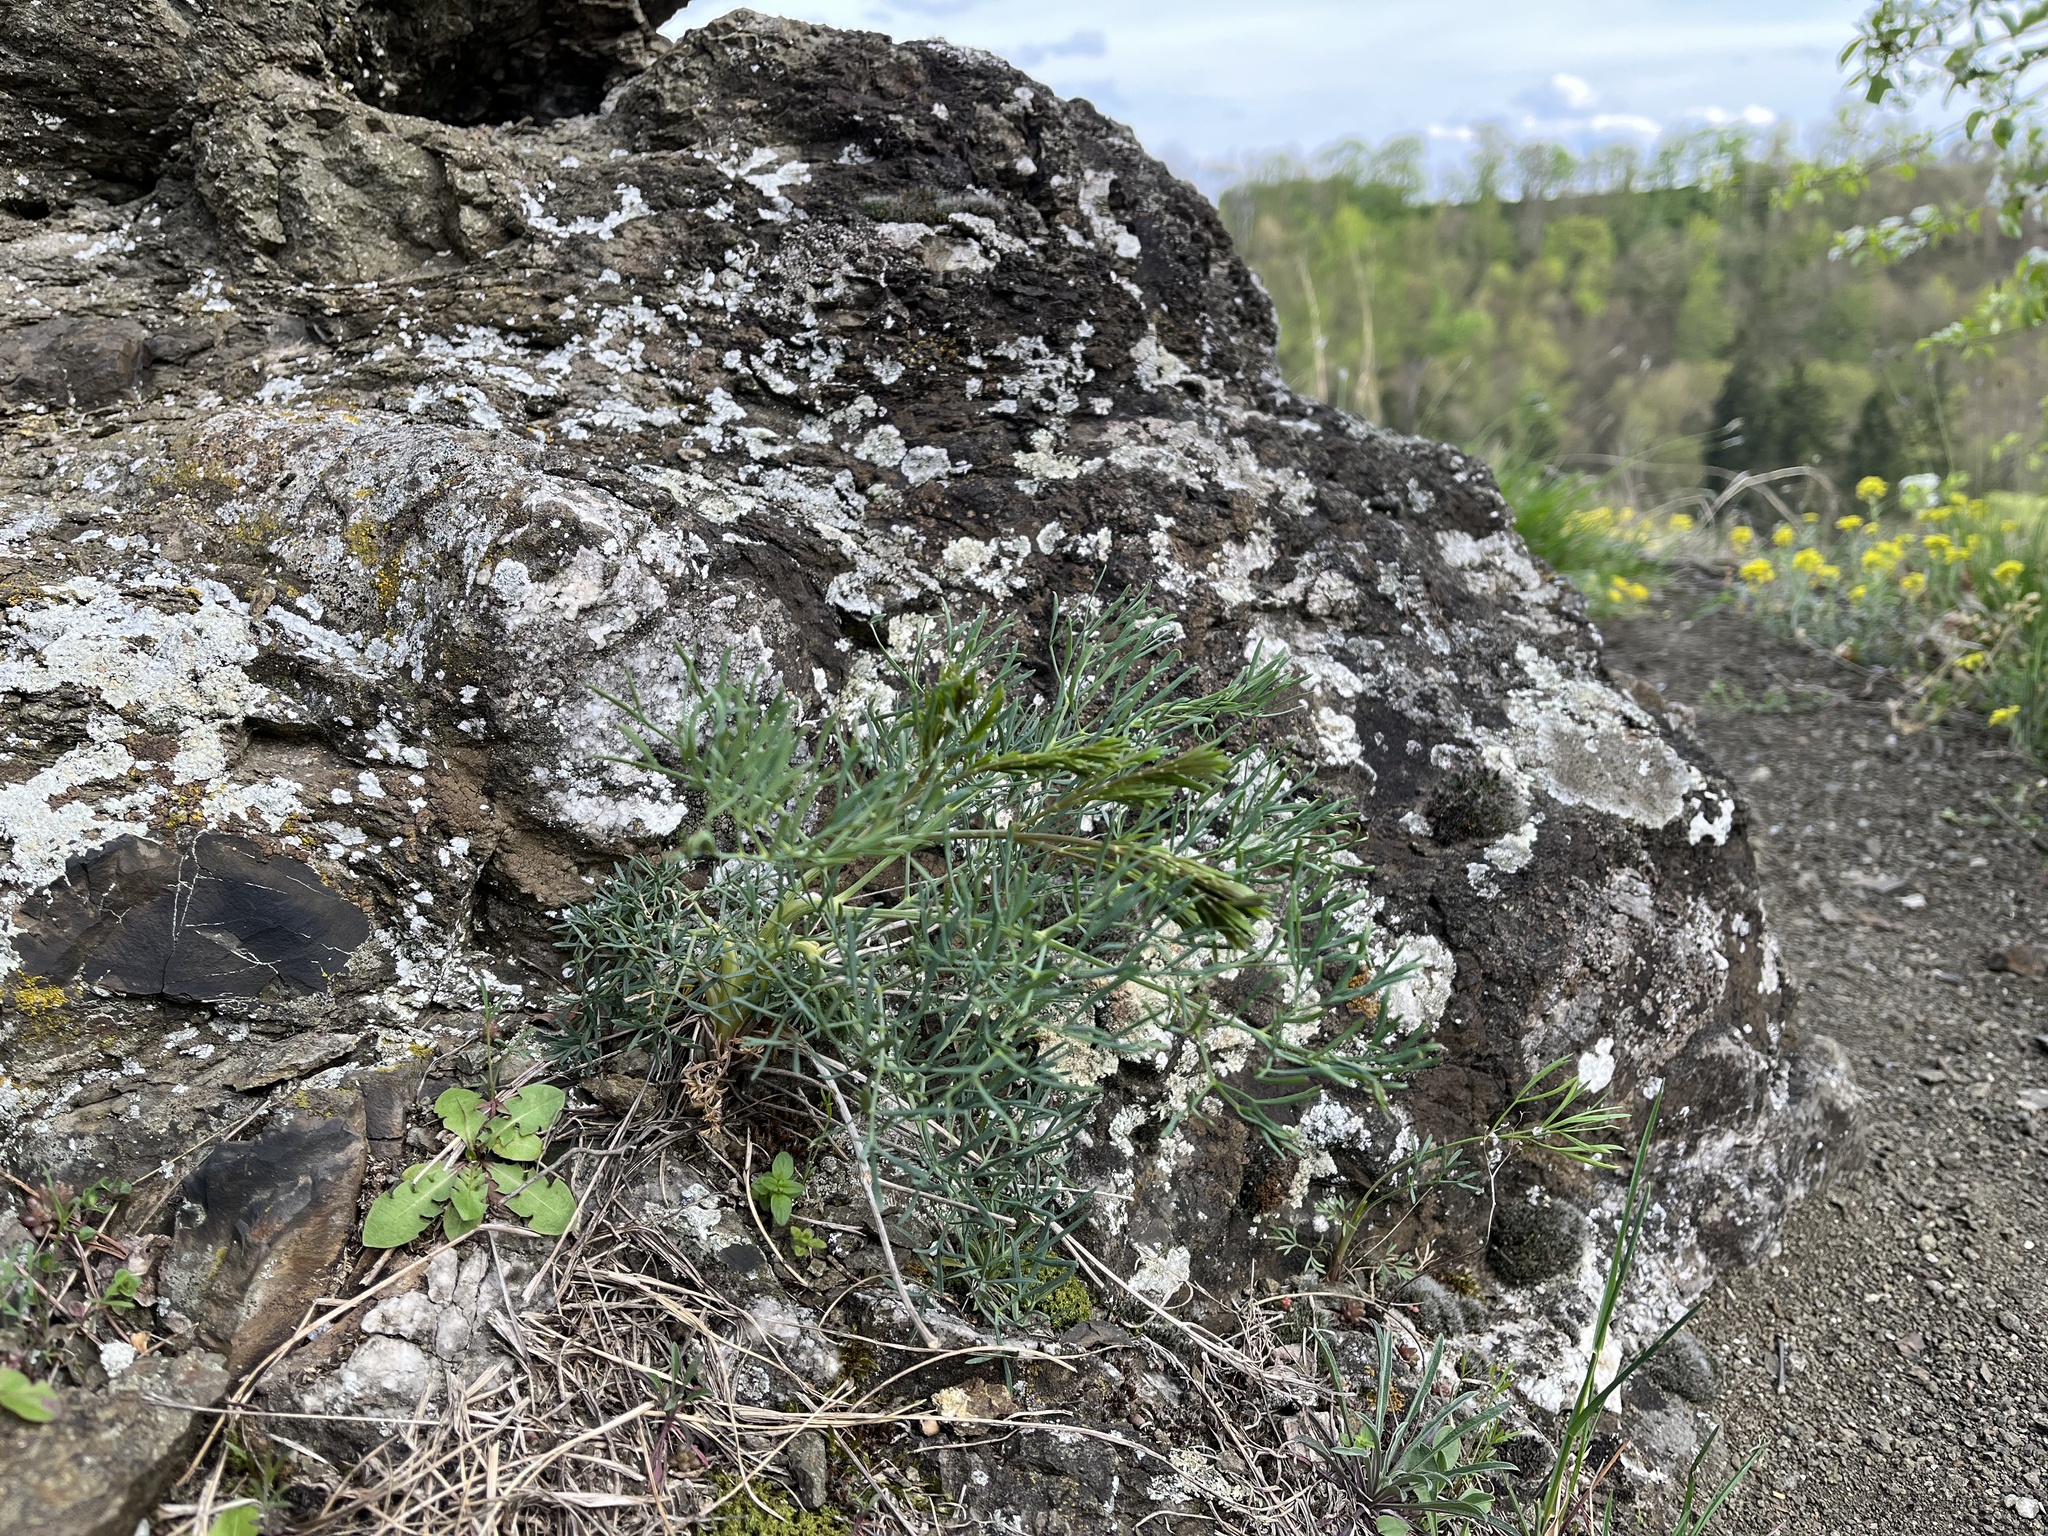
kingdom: Plantae
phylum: Tracheophyta
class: Magnoliopsida
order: Apiales
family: Apiaceae
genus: Seseli
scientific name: Seseli osseum
